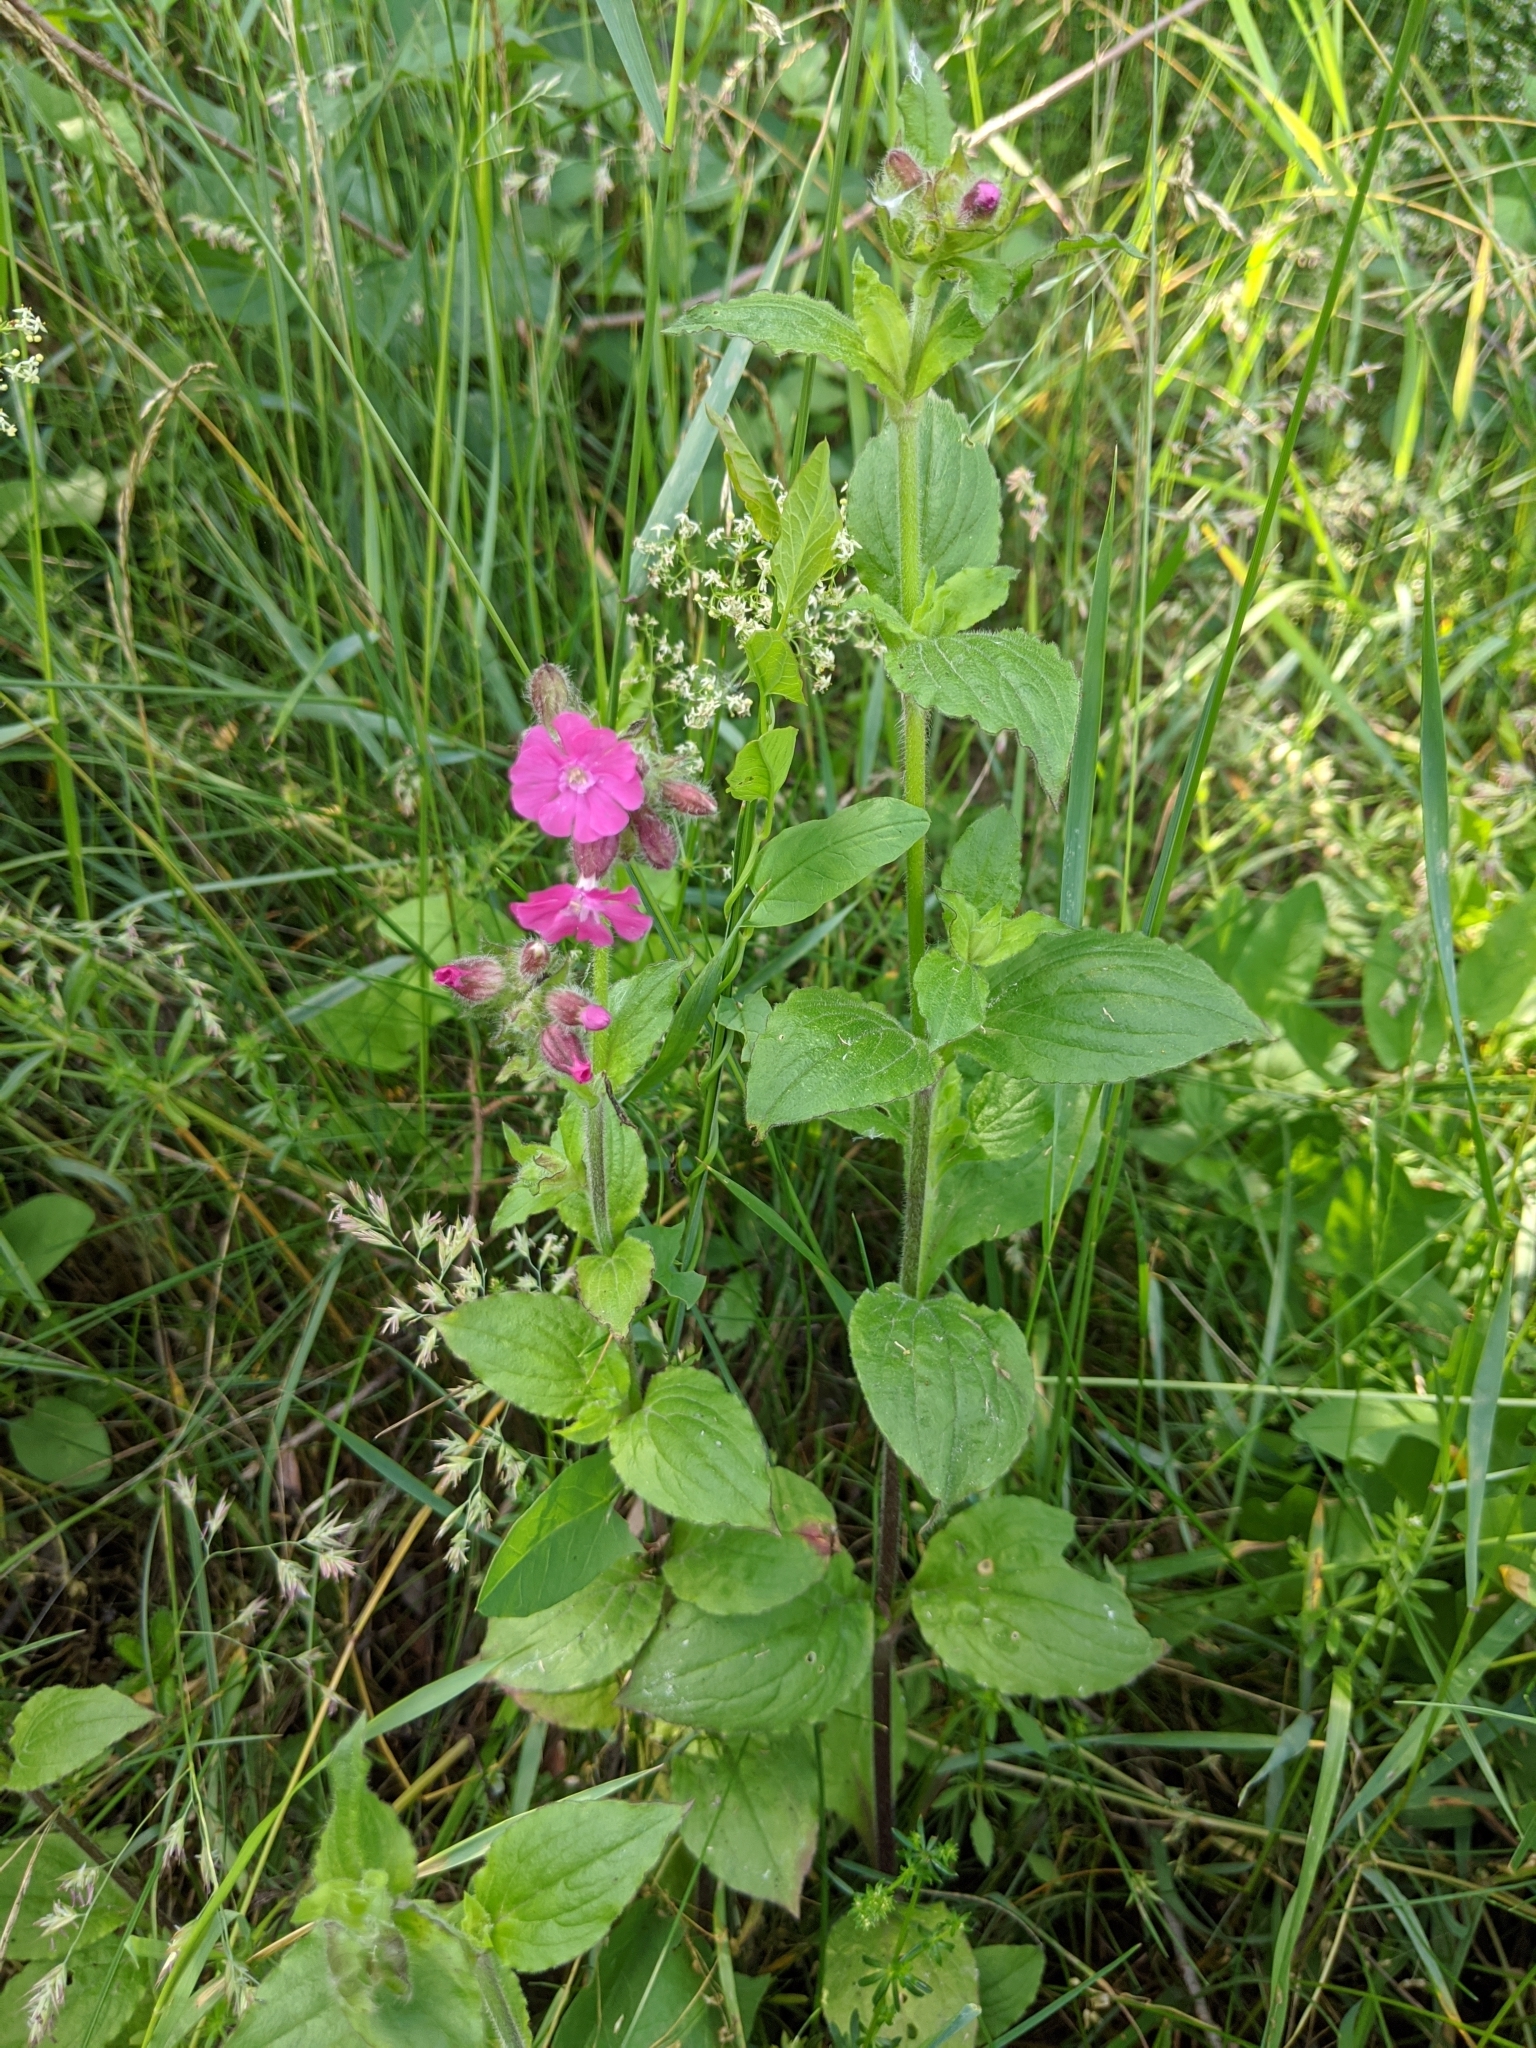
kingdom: Plantae
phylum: Tracheophyta
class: Magnoliopsida
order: Caryophyllales
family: Caryophyllaceae
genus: Silene
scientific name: Silene dioica
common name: Red campion
